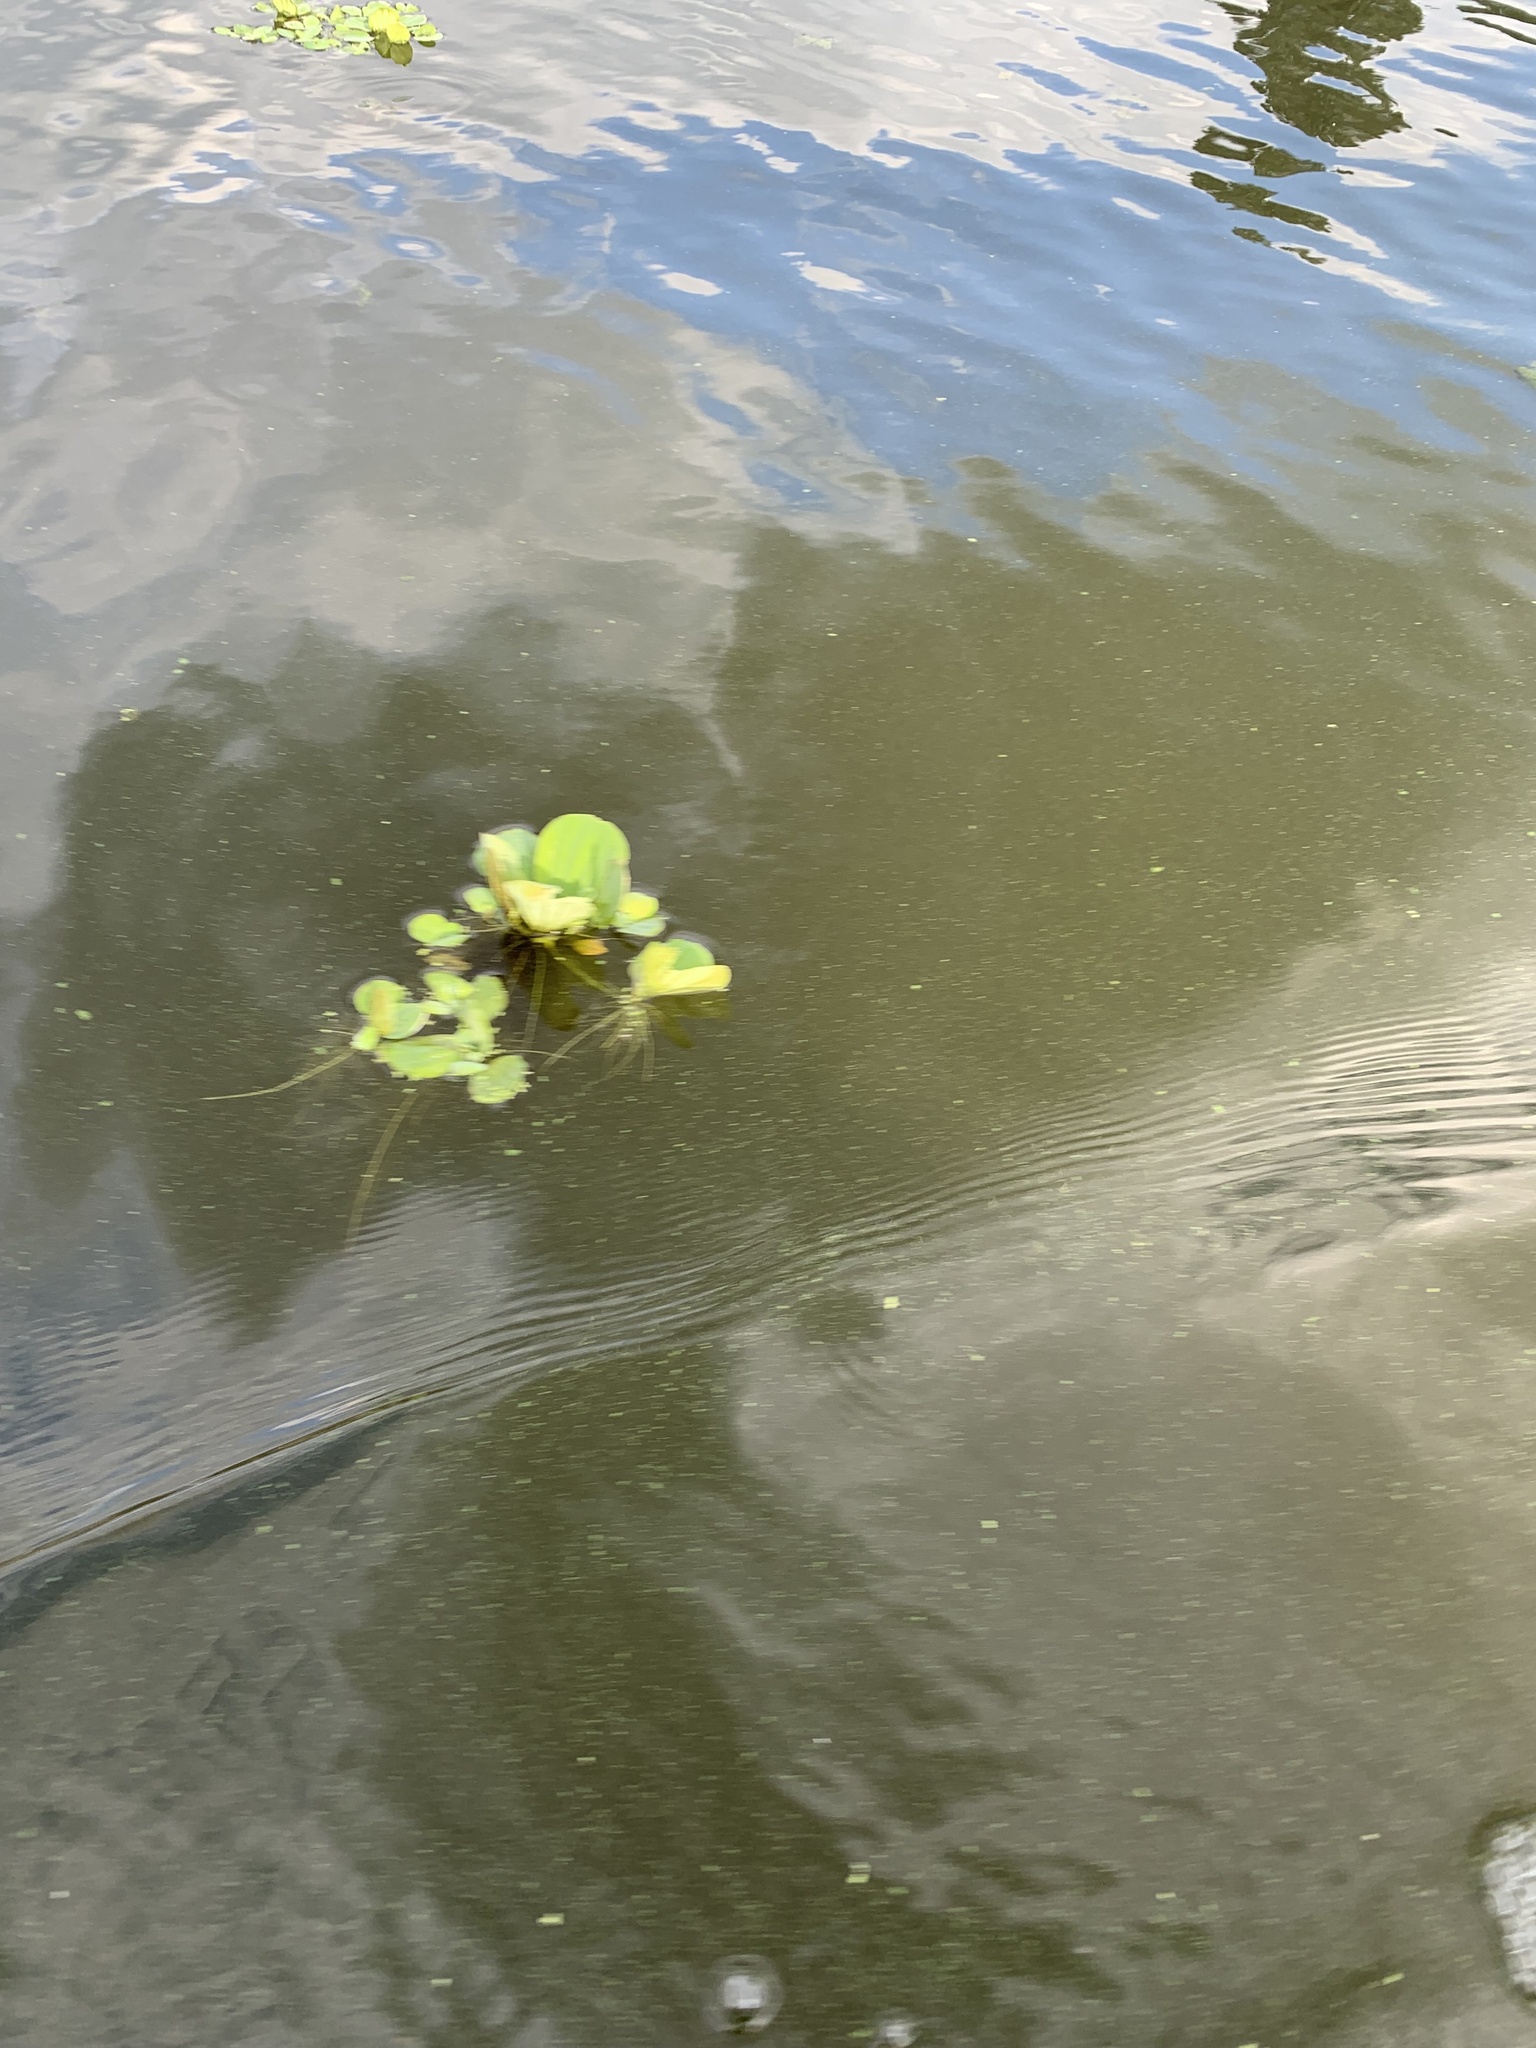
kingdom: Plantae
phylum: Tracheophyta
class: Liliopsida
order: Alismatales
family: Araceae
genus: Pistia
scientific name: Pistia stratiotes
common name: Water lettuce
